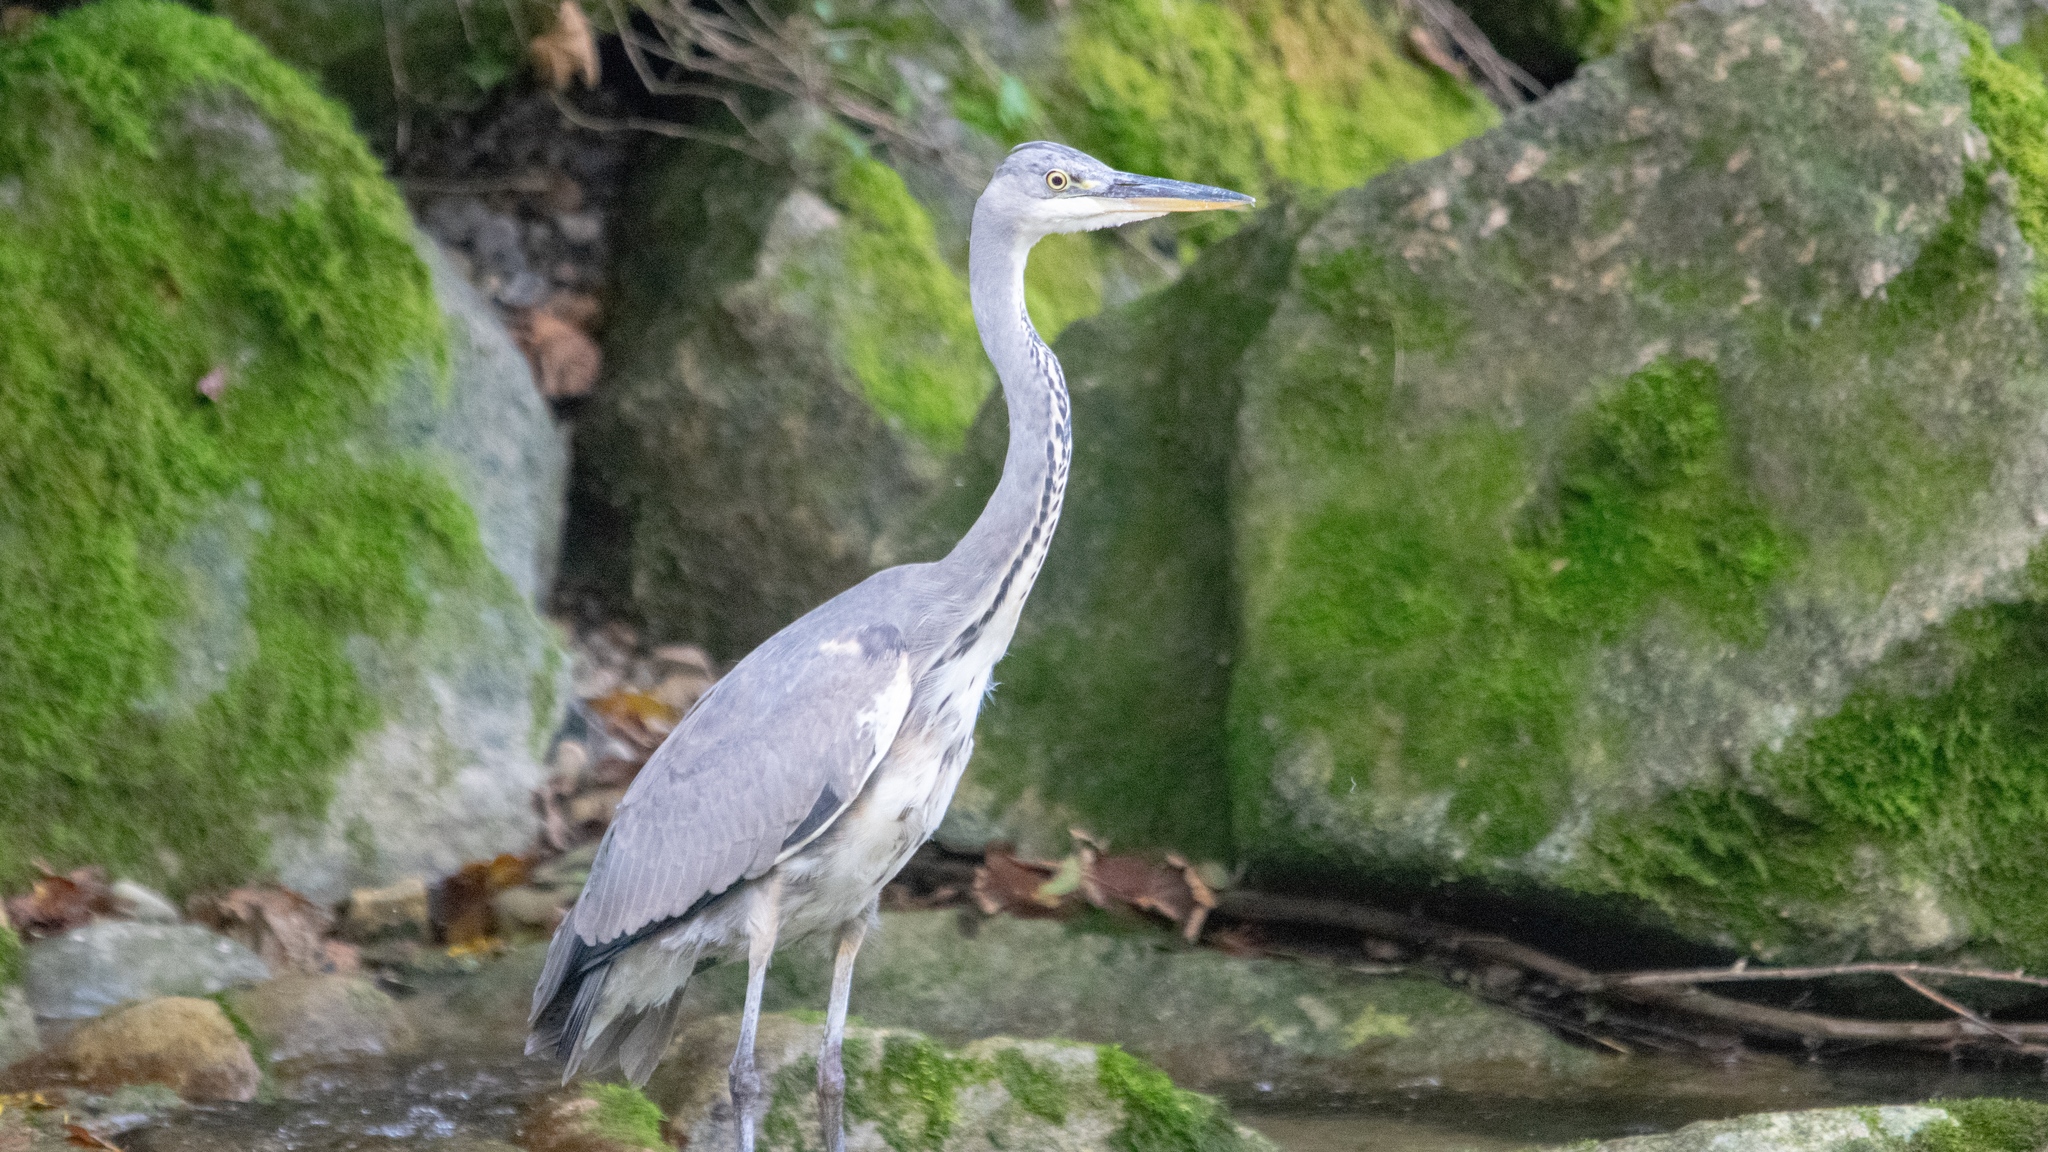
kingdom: Animalia
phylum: Chordata
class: Aves
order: Pelecaniformes
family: Ardeidae
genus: Ardea
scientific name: Ardea cinerea
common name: Grey heron
